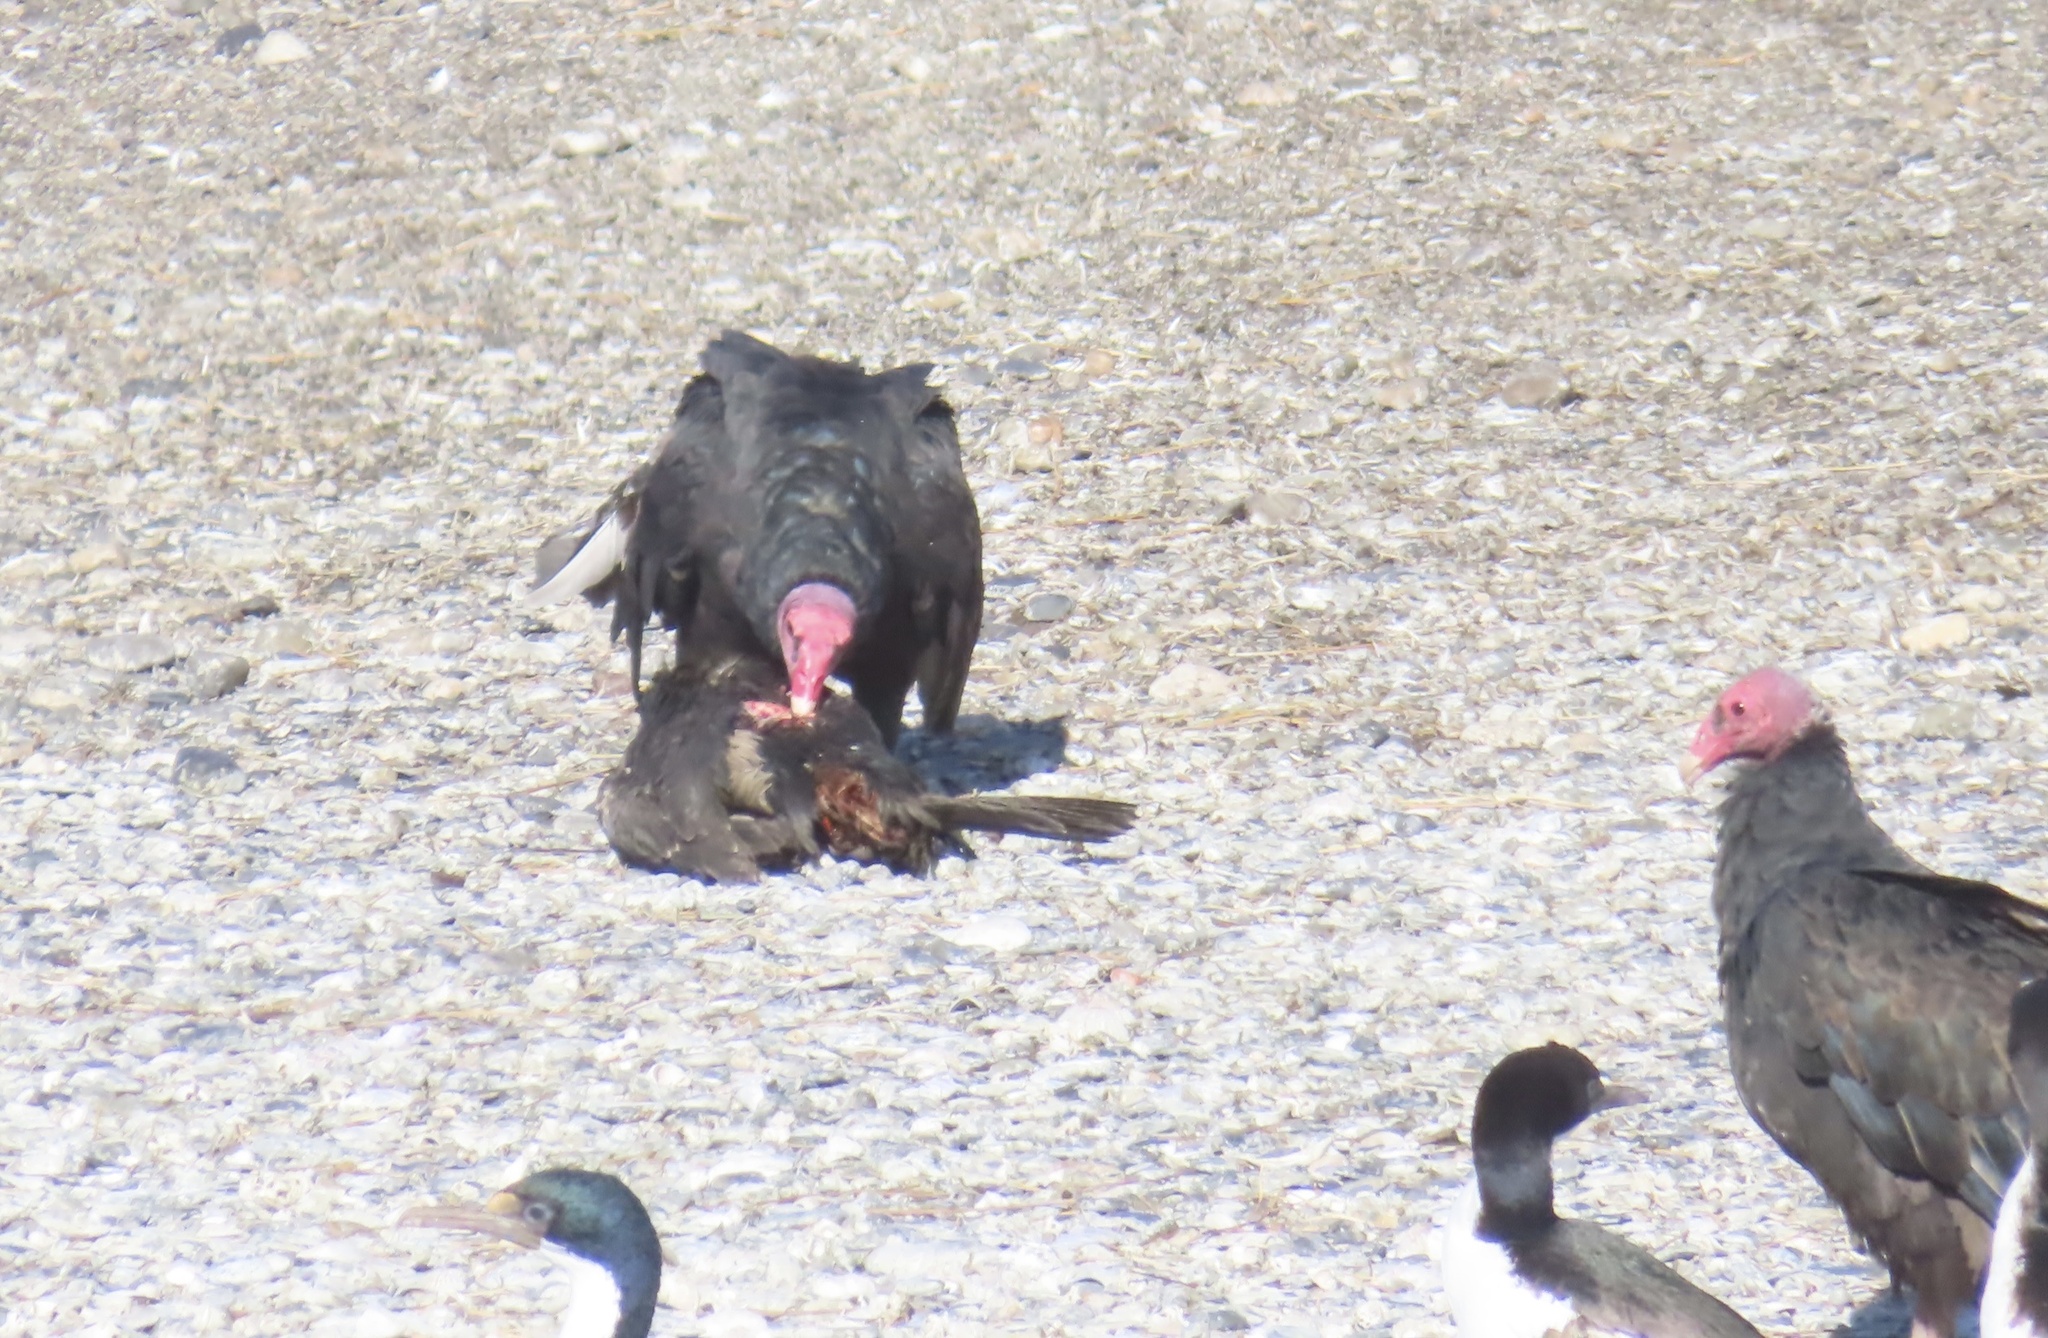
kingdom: Animalia
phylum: Chordata
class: Aves
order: Accipitriformes
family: Cathartidae
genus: Cathartes
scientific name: Cathartes aura
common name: Turkey vulture
